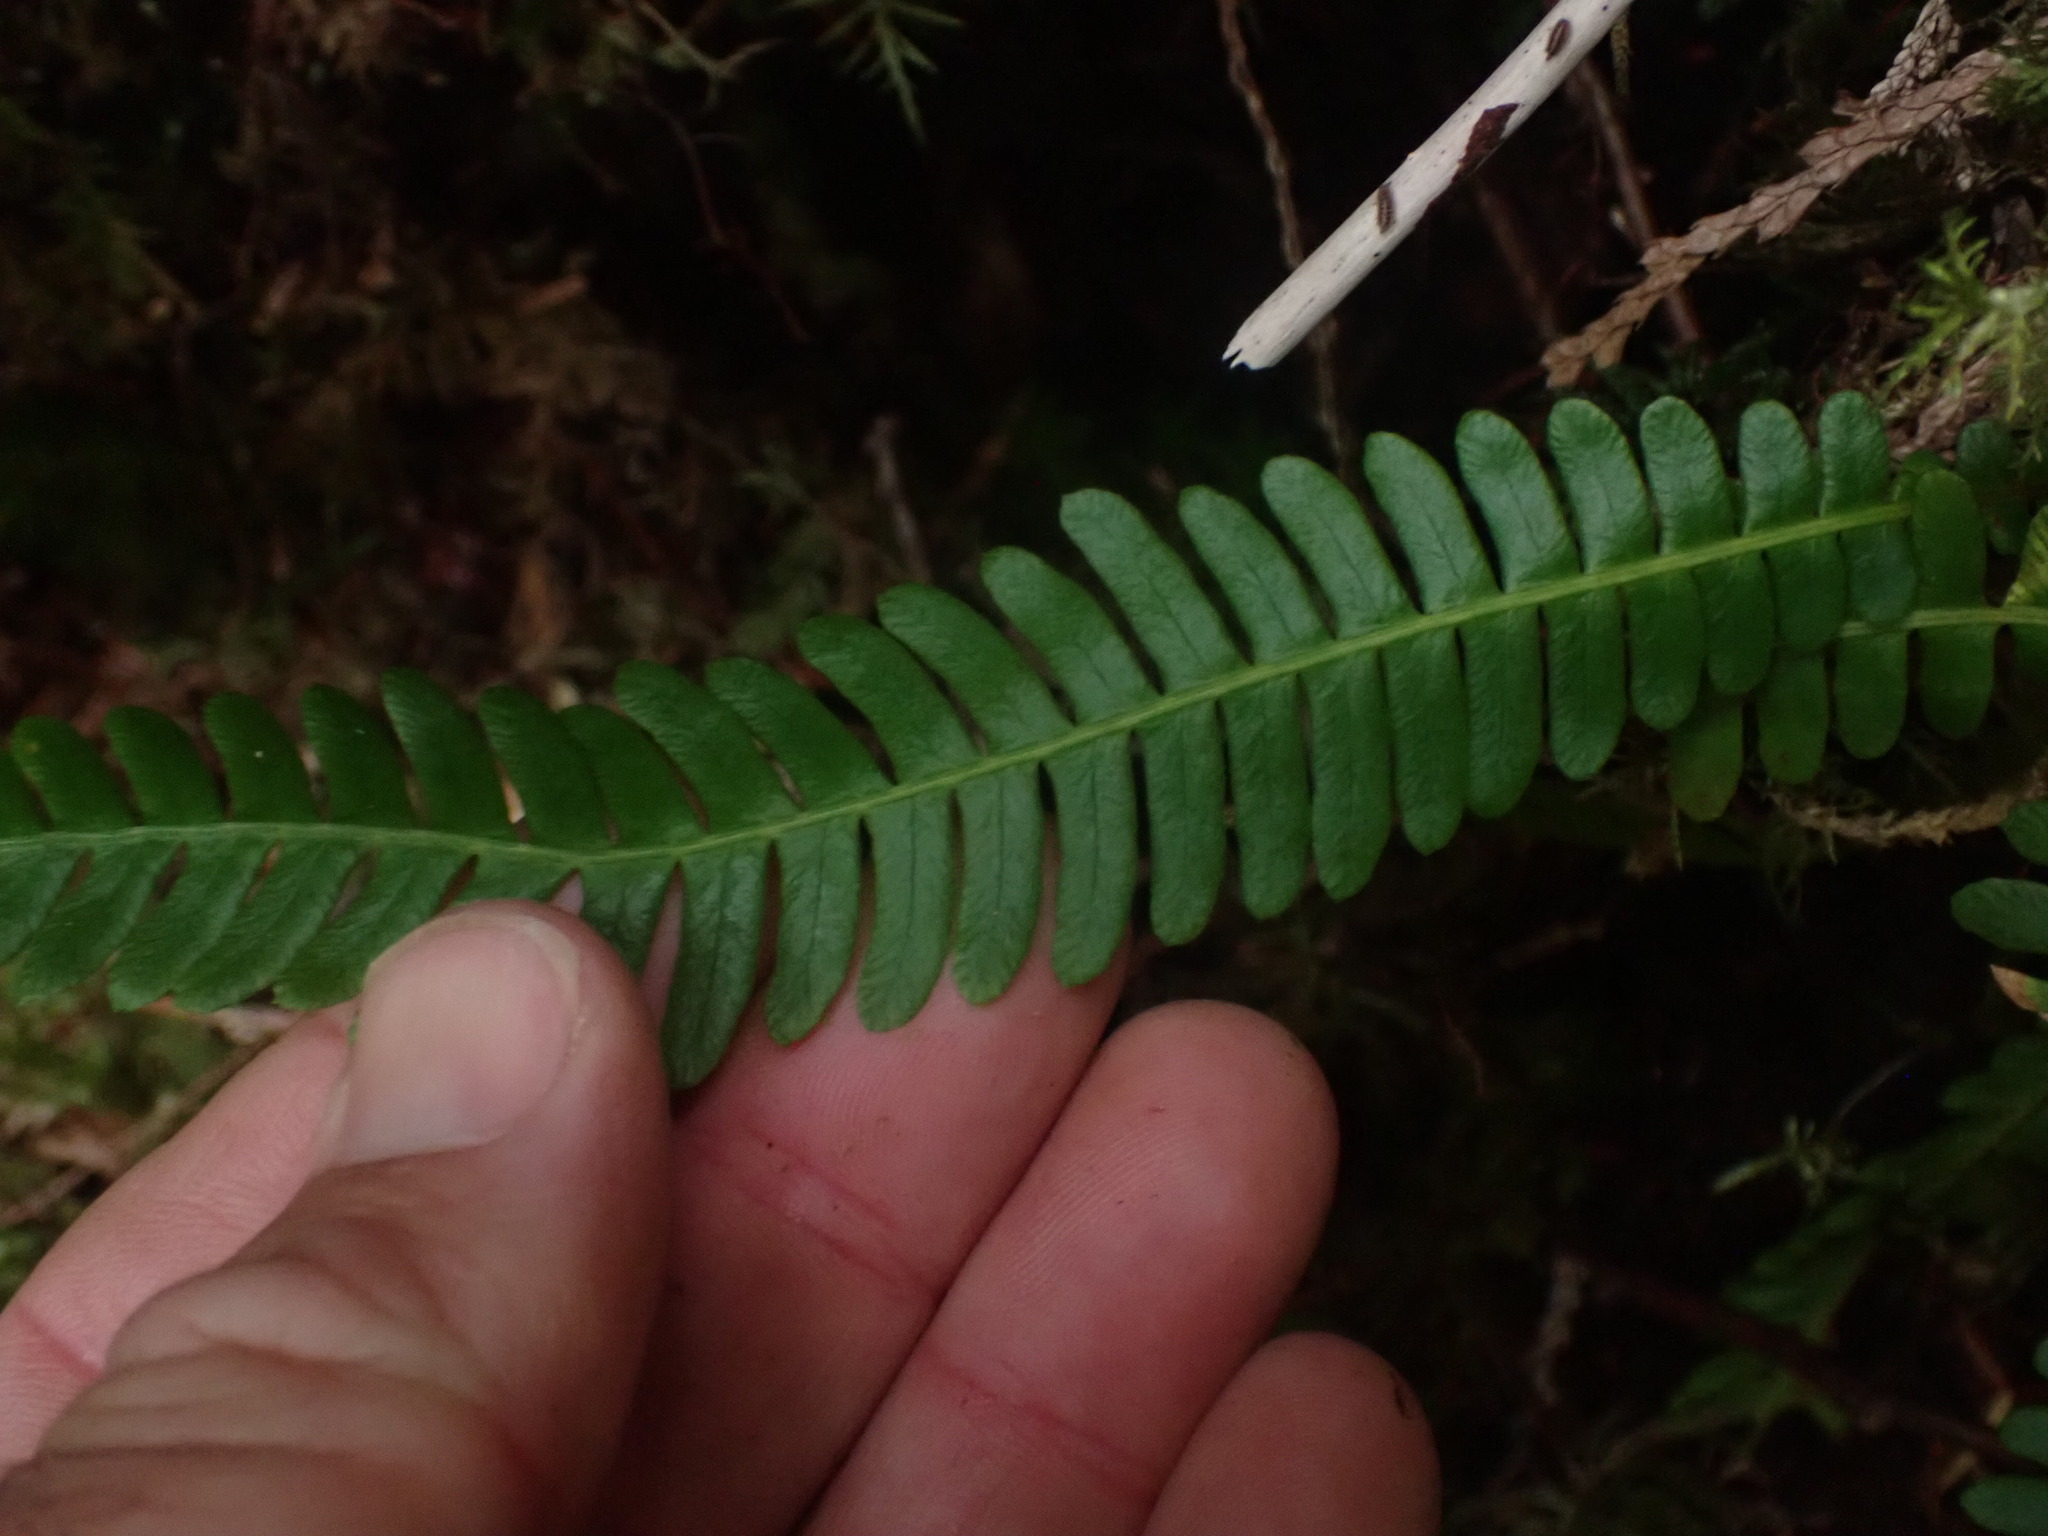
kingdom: Plantae
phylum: Tracheophyta
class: Polypodiopsida
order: Polypodiales
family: Blechnaceae
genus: Struthiopteris
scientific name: Struthiopteris spicant
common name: Deer fern
